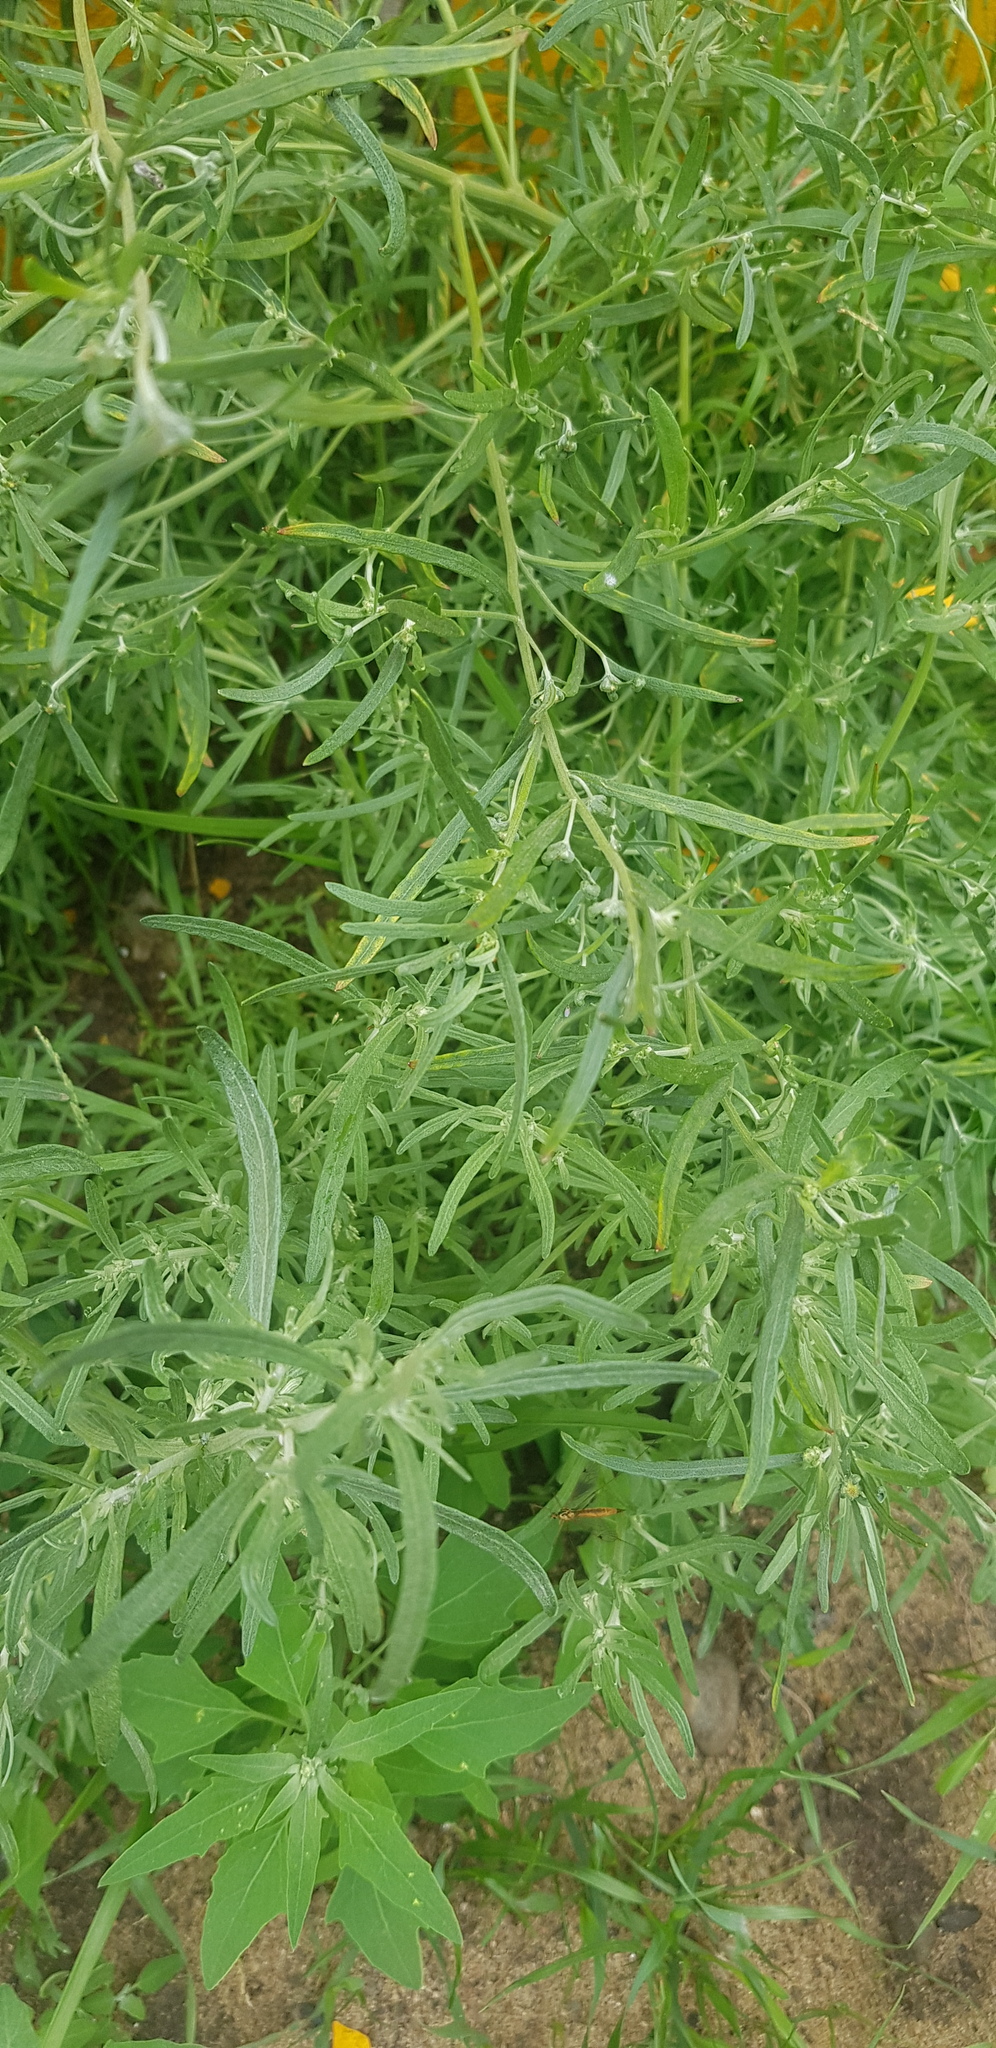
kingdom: Plantae
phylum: Tracheophyta
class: Magnoliopsida
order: Caryophyllales
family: Amaranthaceae
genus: Bassia
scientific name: Bassia scoparia
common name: Belvedere
